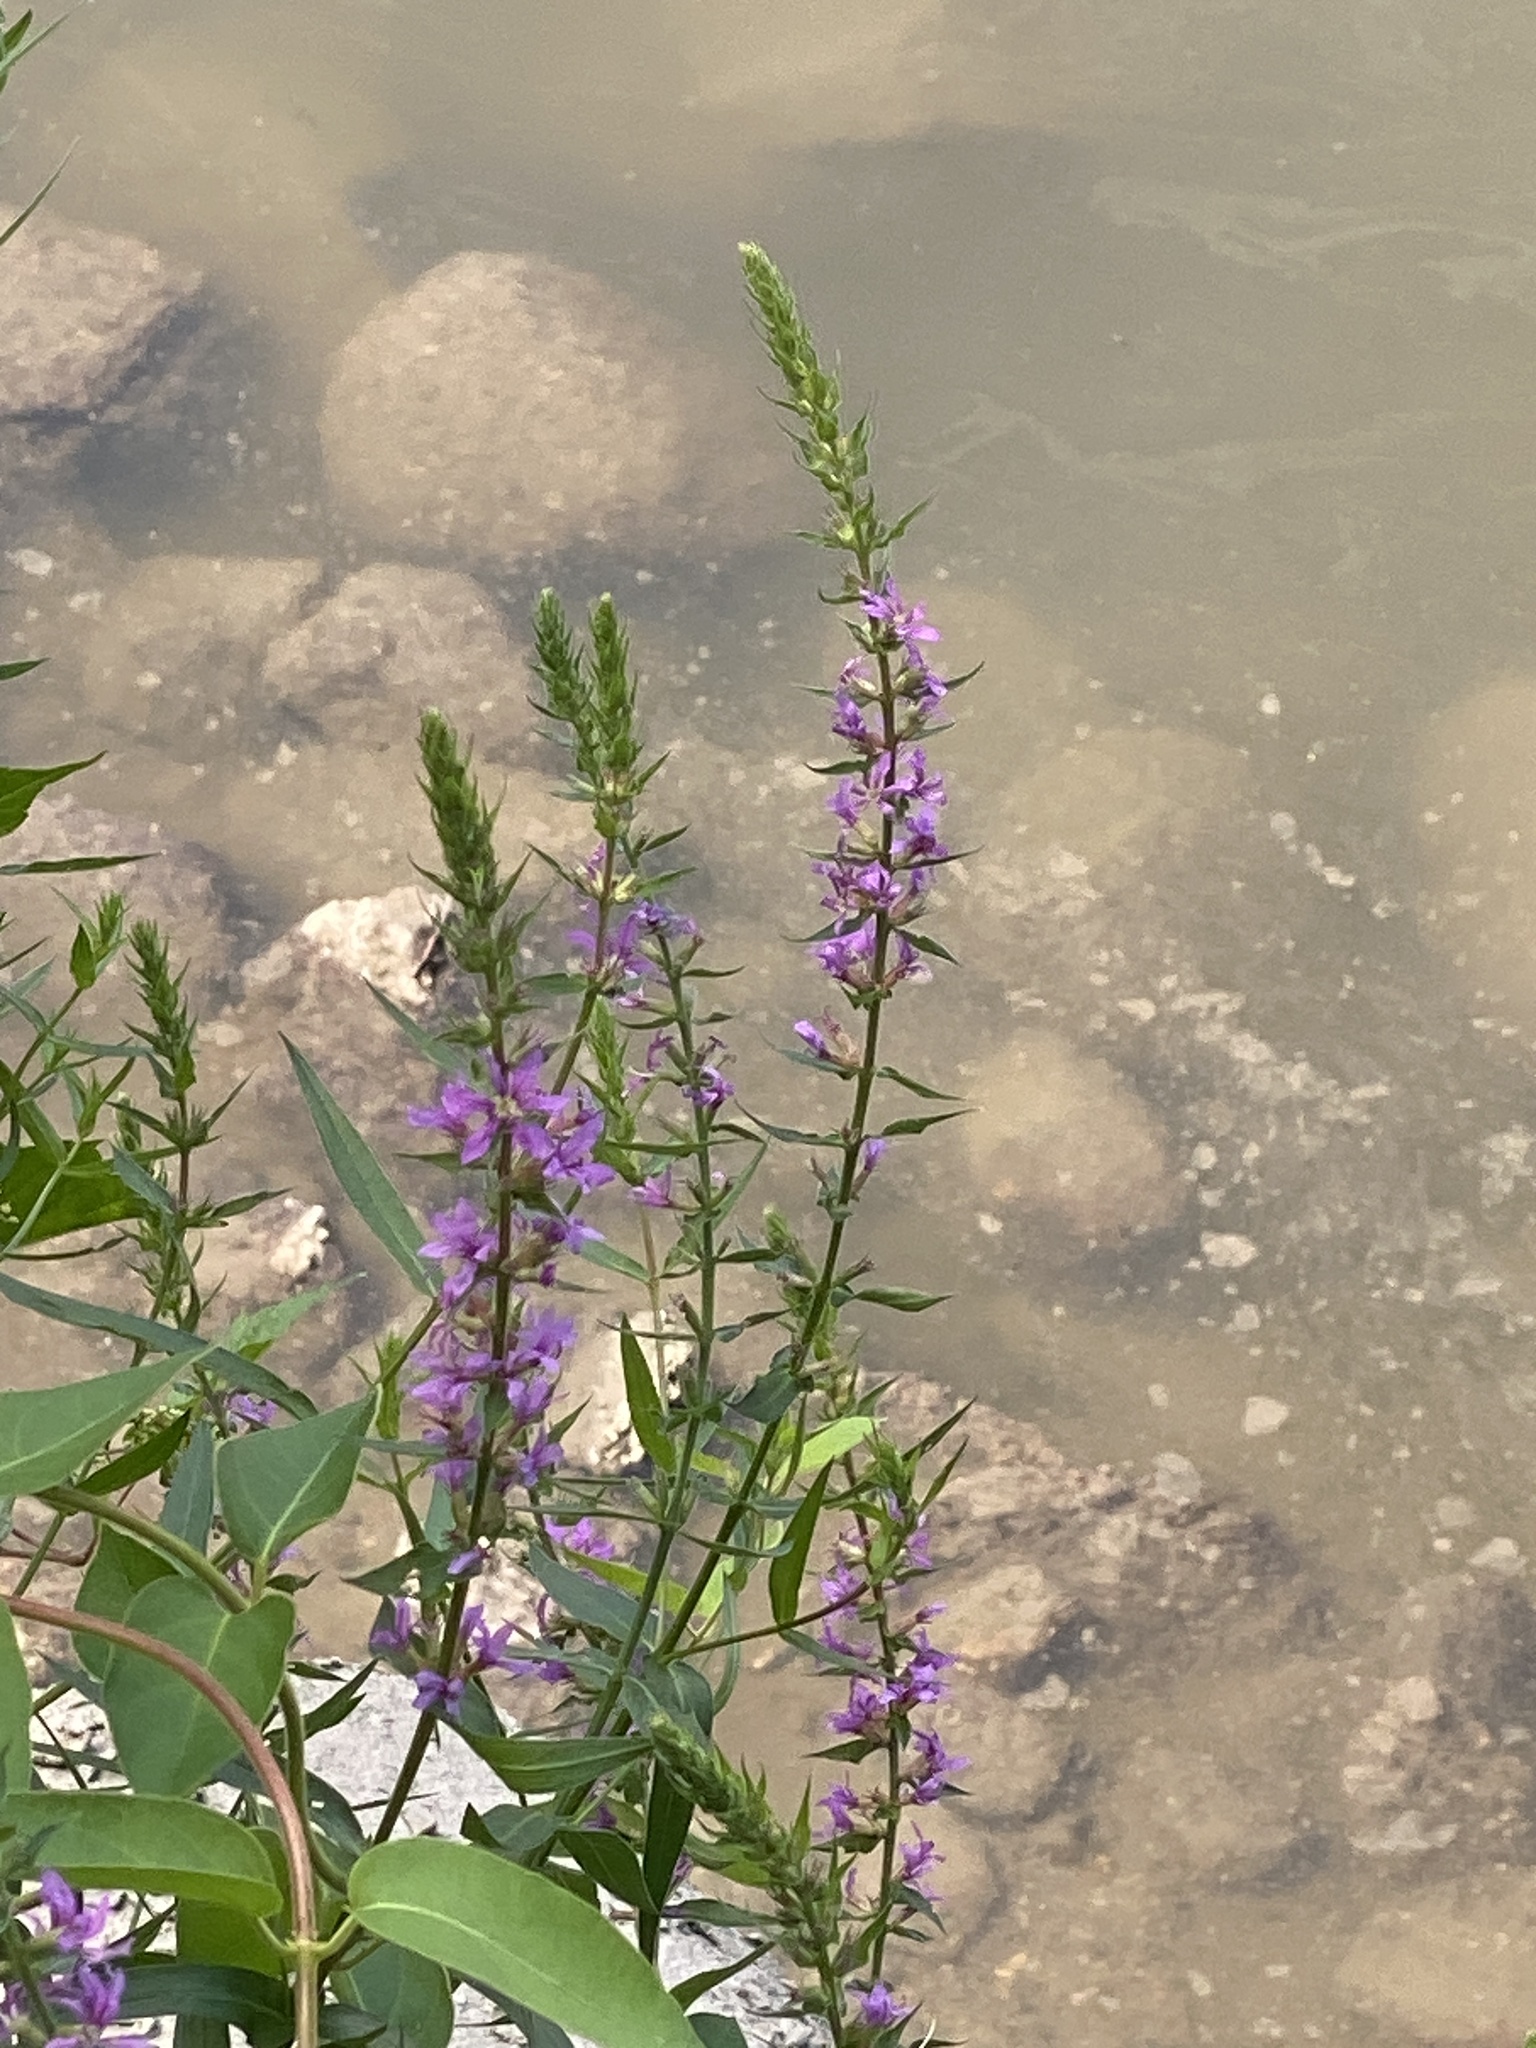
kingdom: Plantae
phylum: Tracheophyta
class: Magnoliopsida
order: Myrtales
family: Lythraceae
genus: Lythrum
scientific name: Lythrum salicaria
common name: Purple loosestrife
